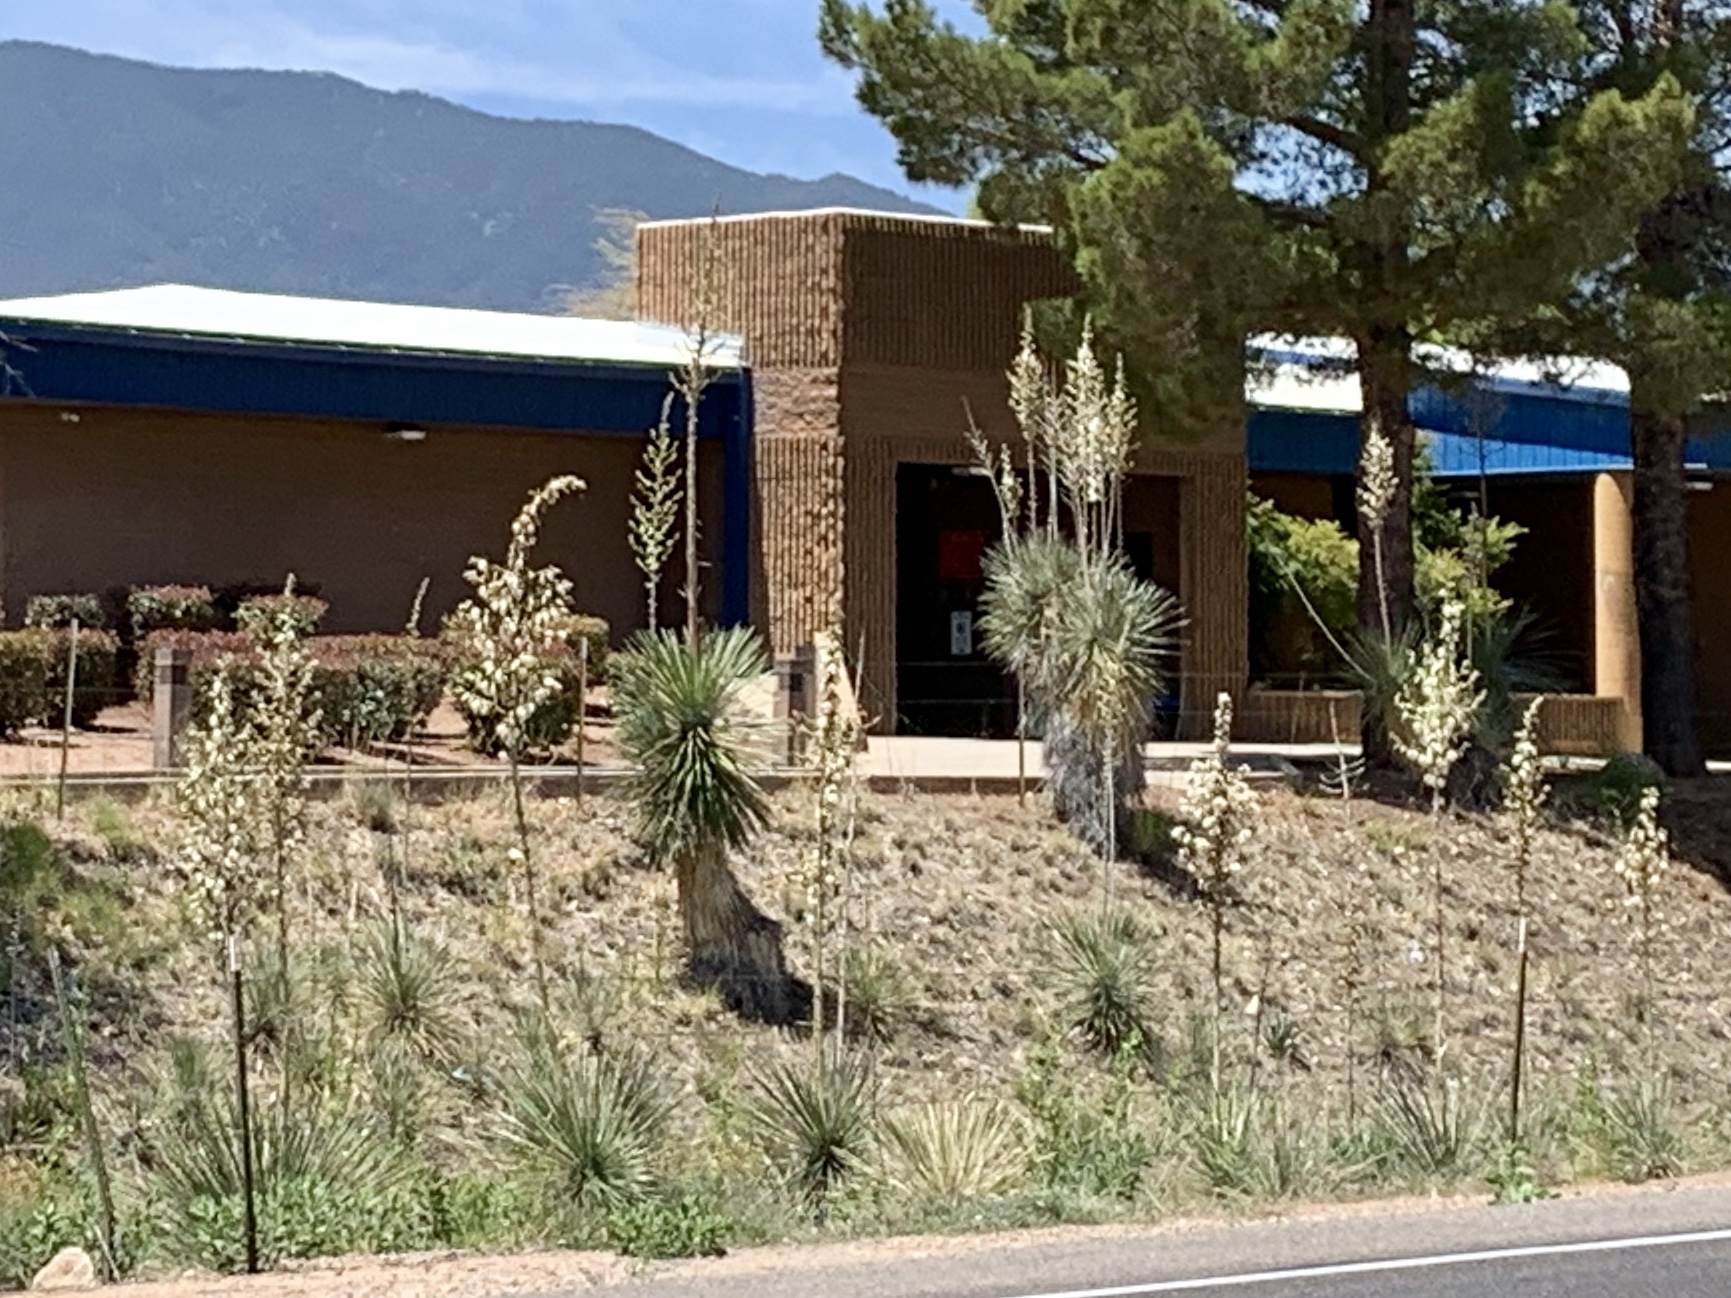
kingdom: Plantae
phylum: Tracheophyta
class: Liliopsida
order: Asparagales
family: Asparagaceae
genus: Yucca
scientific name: Yucca elata
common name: Palmella
